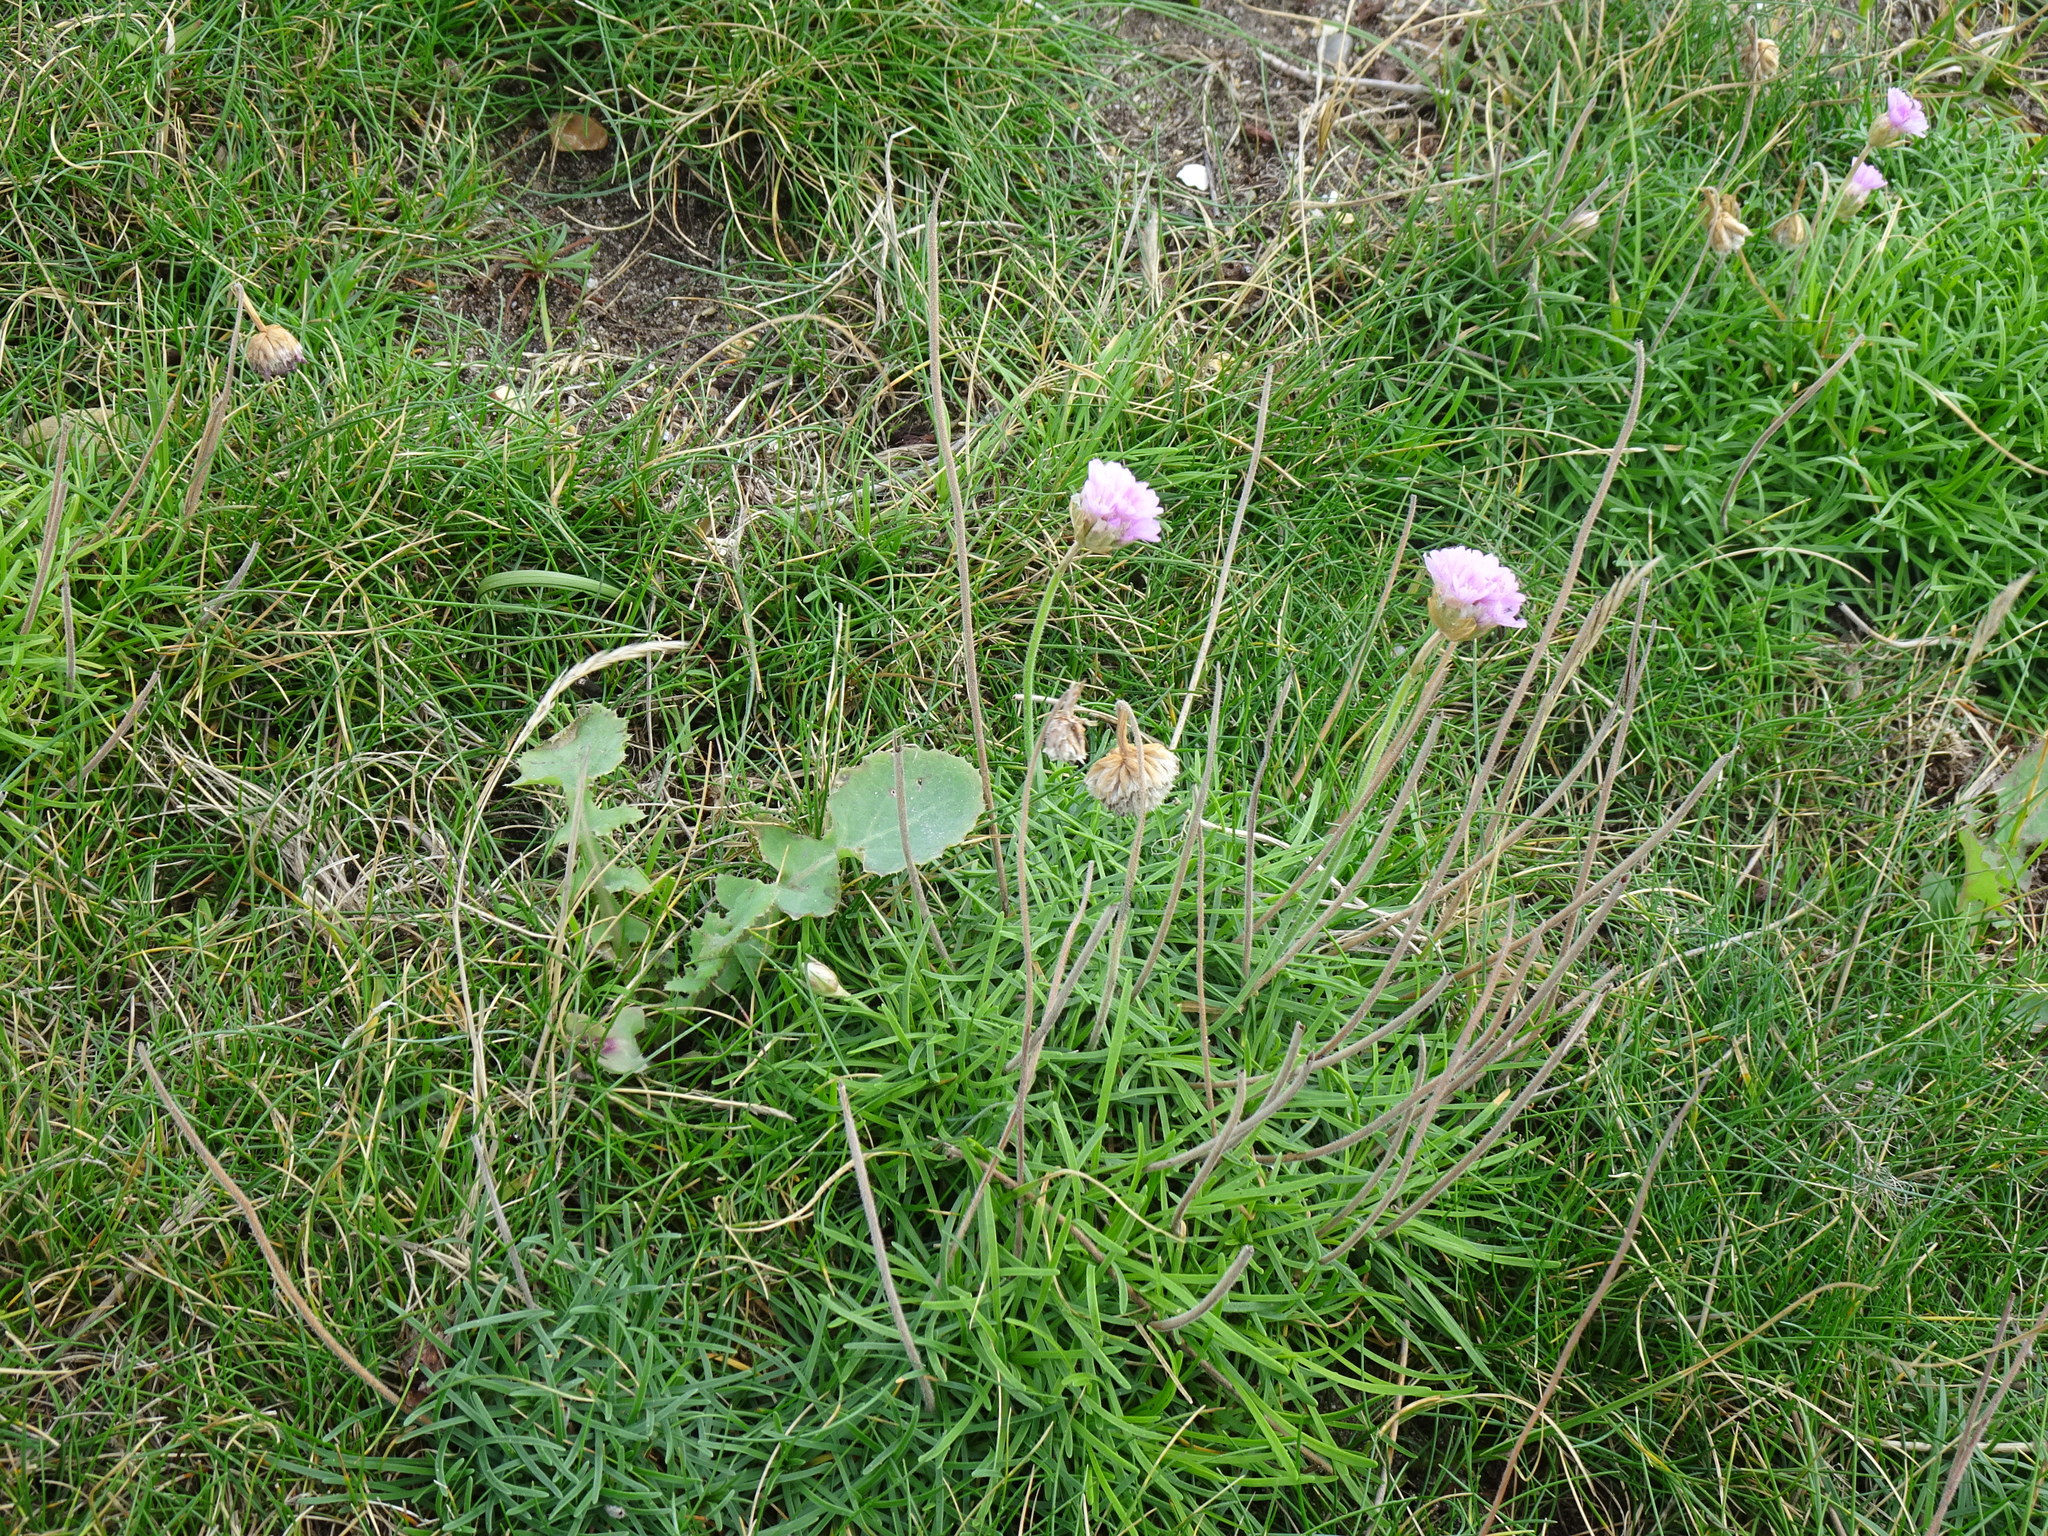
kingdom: Plantae
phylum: Tracheophyta
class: Magnoliopsida
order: Caryophyllales
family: Plumbaginaceae
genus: Armeria
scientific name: Armeria maritima
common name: Thrift
